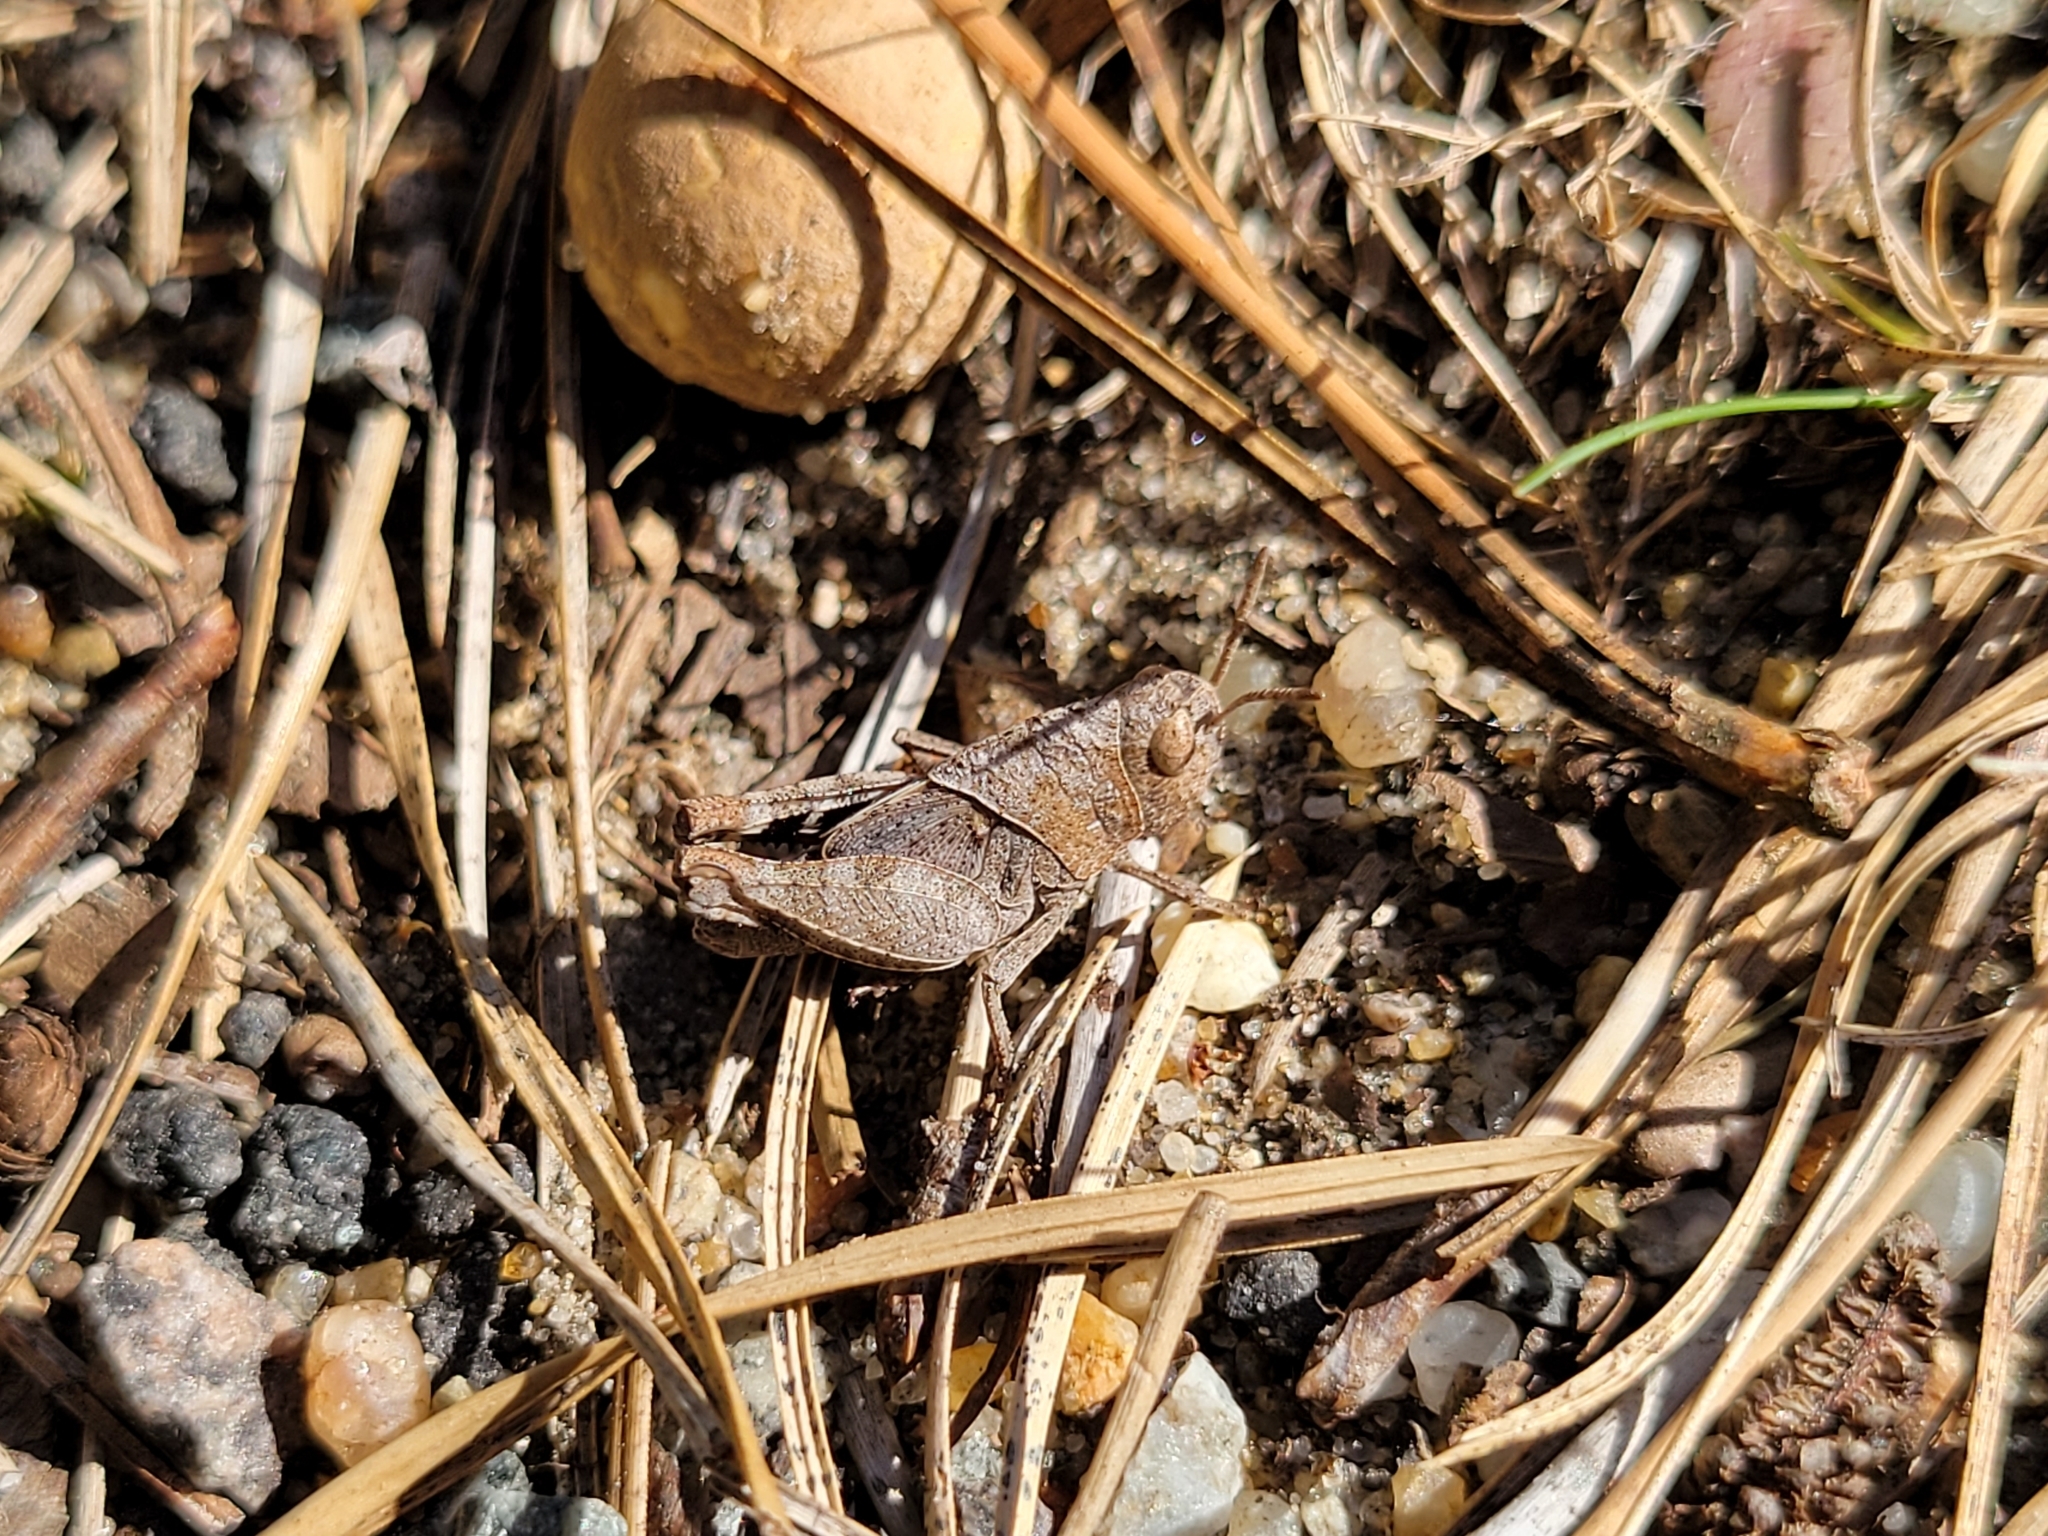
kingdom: Animalia
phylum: Arthropoda
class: Insecta
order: Orthoptera
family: Acrididae
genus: Arphia
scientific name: Arphia sulphurea
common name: Spring yellow-winged locust
